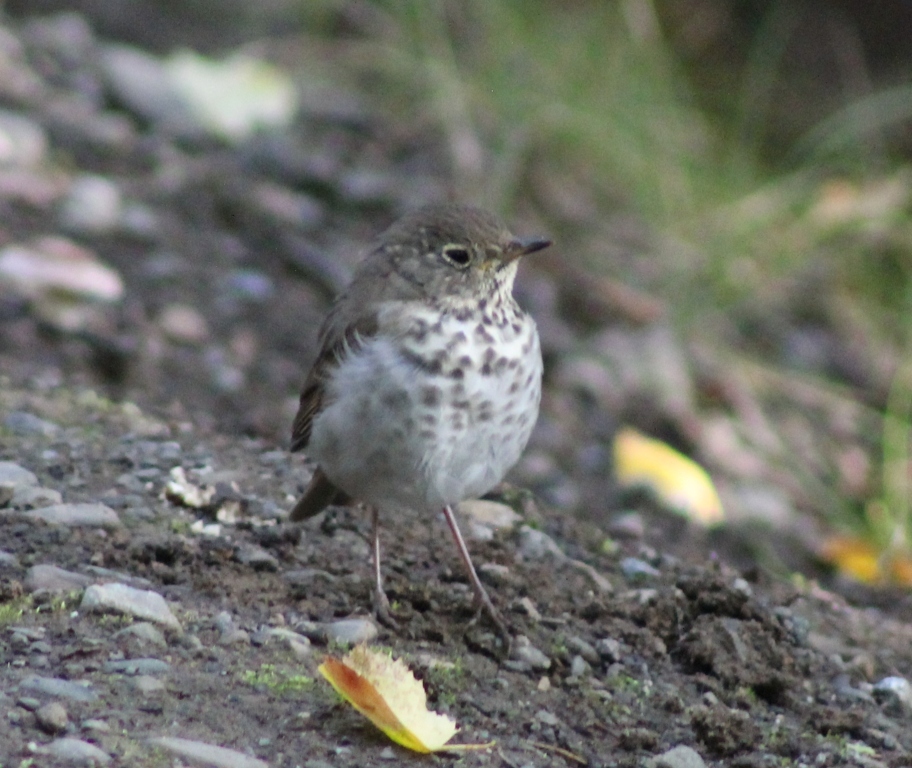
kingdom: Animalia
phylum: Chordata
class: Aves
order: Passeriformes
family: Turdidae
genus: Catharus
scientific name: Catharus guttatus
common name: Hermit thrush
